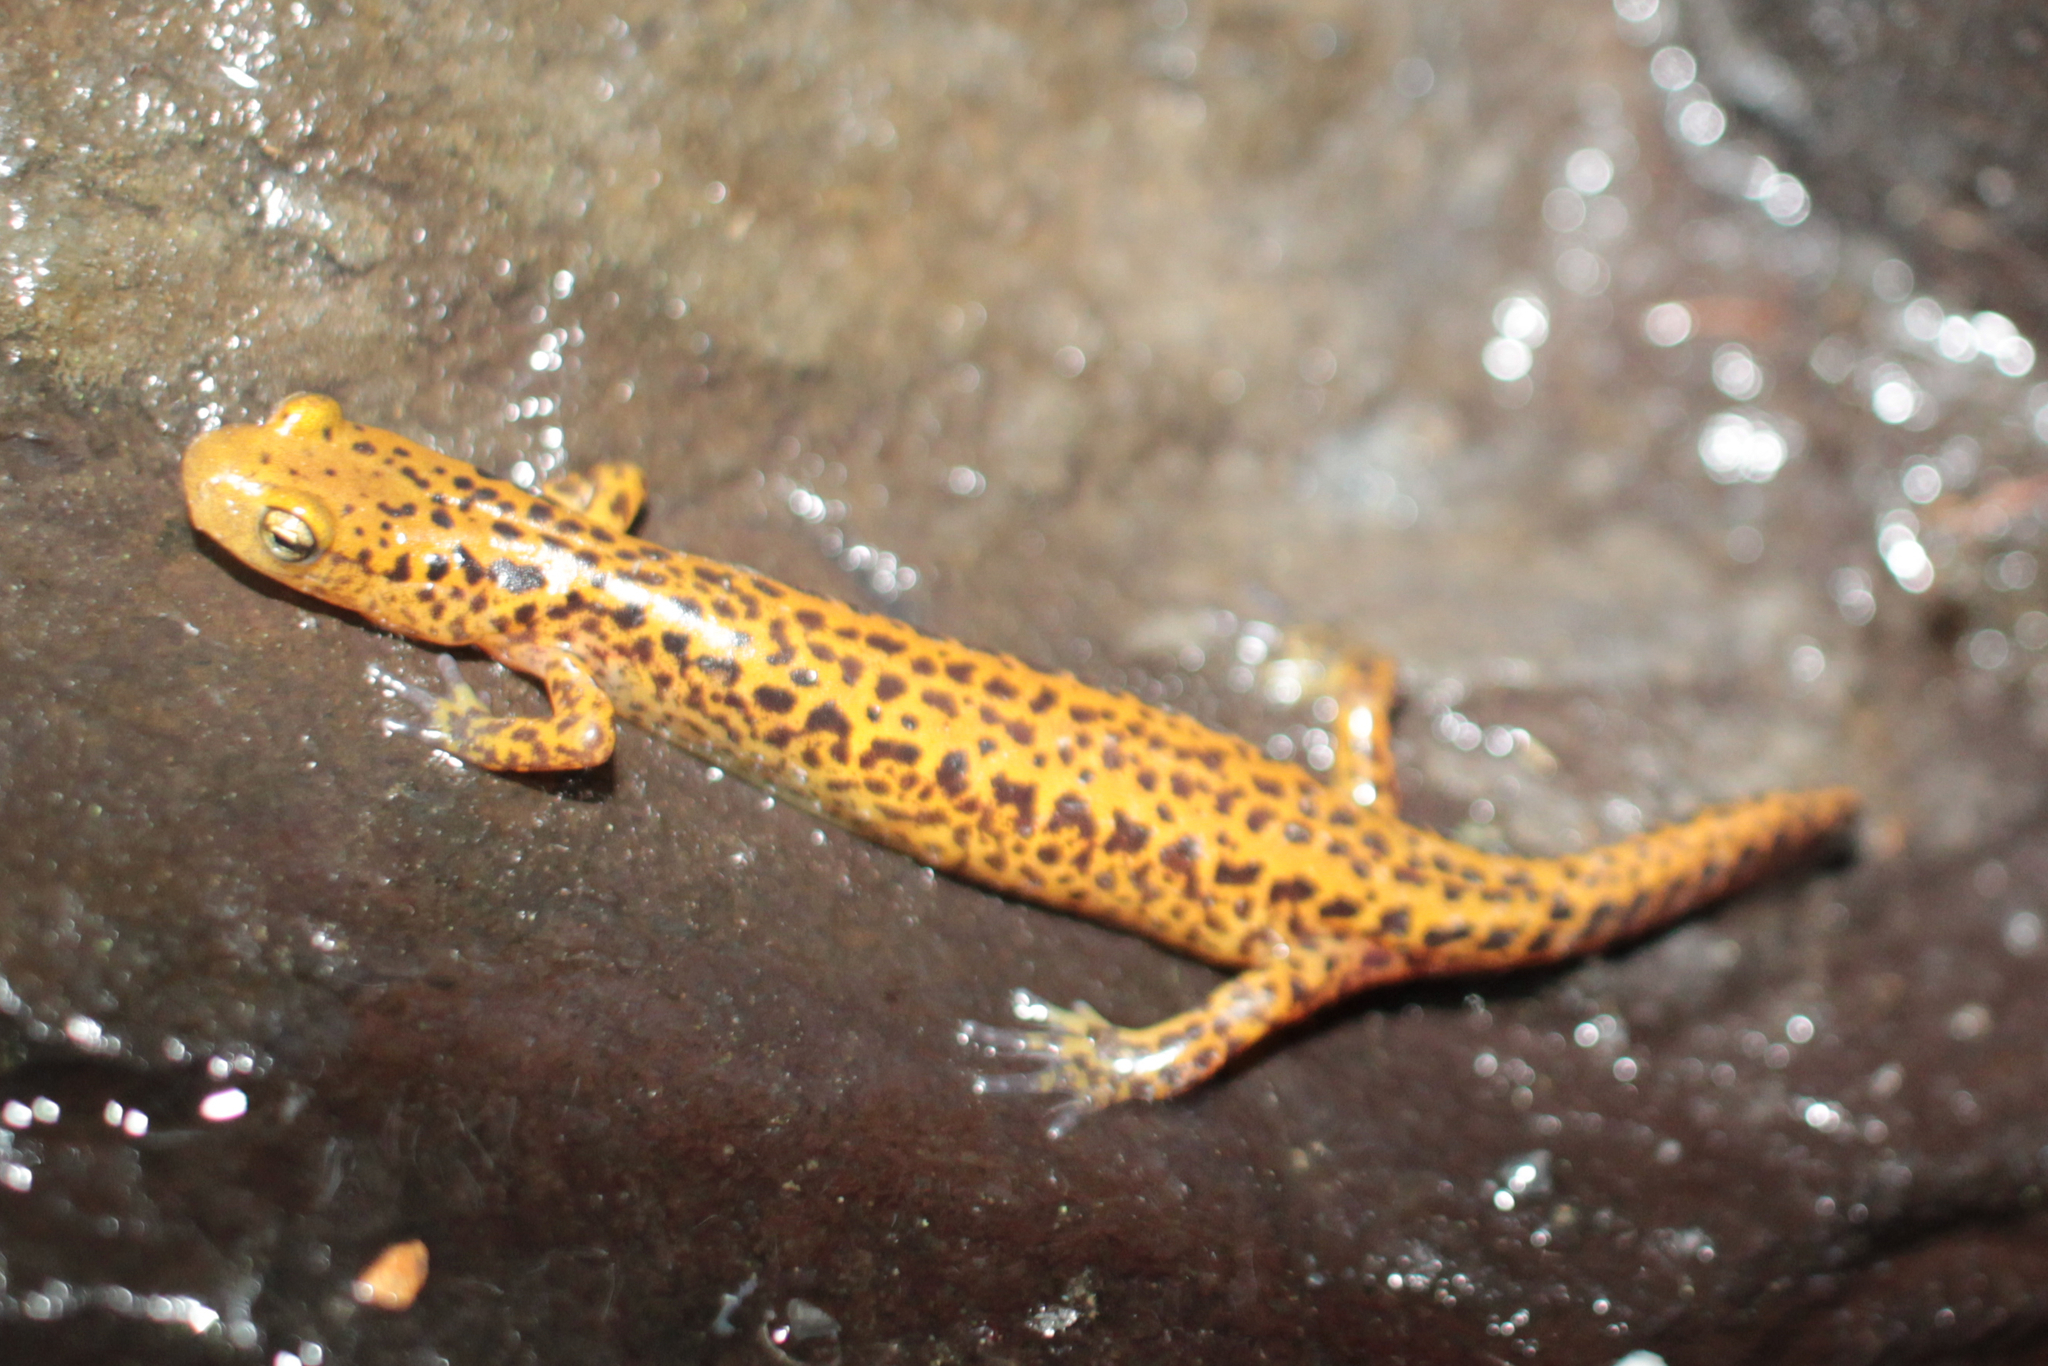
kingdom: Animalia
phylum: Chordata
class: Amphibia
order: Caudata
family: Plethodontidae
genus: Eurycea
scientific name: Eurycea longicauda
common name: Long-tailed salamander
